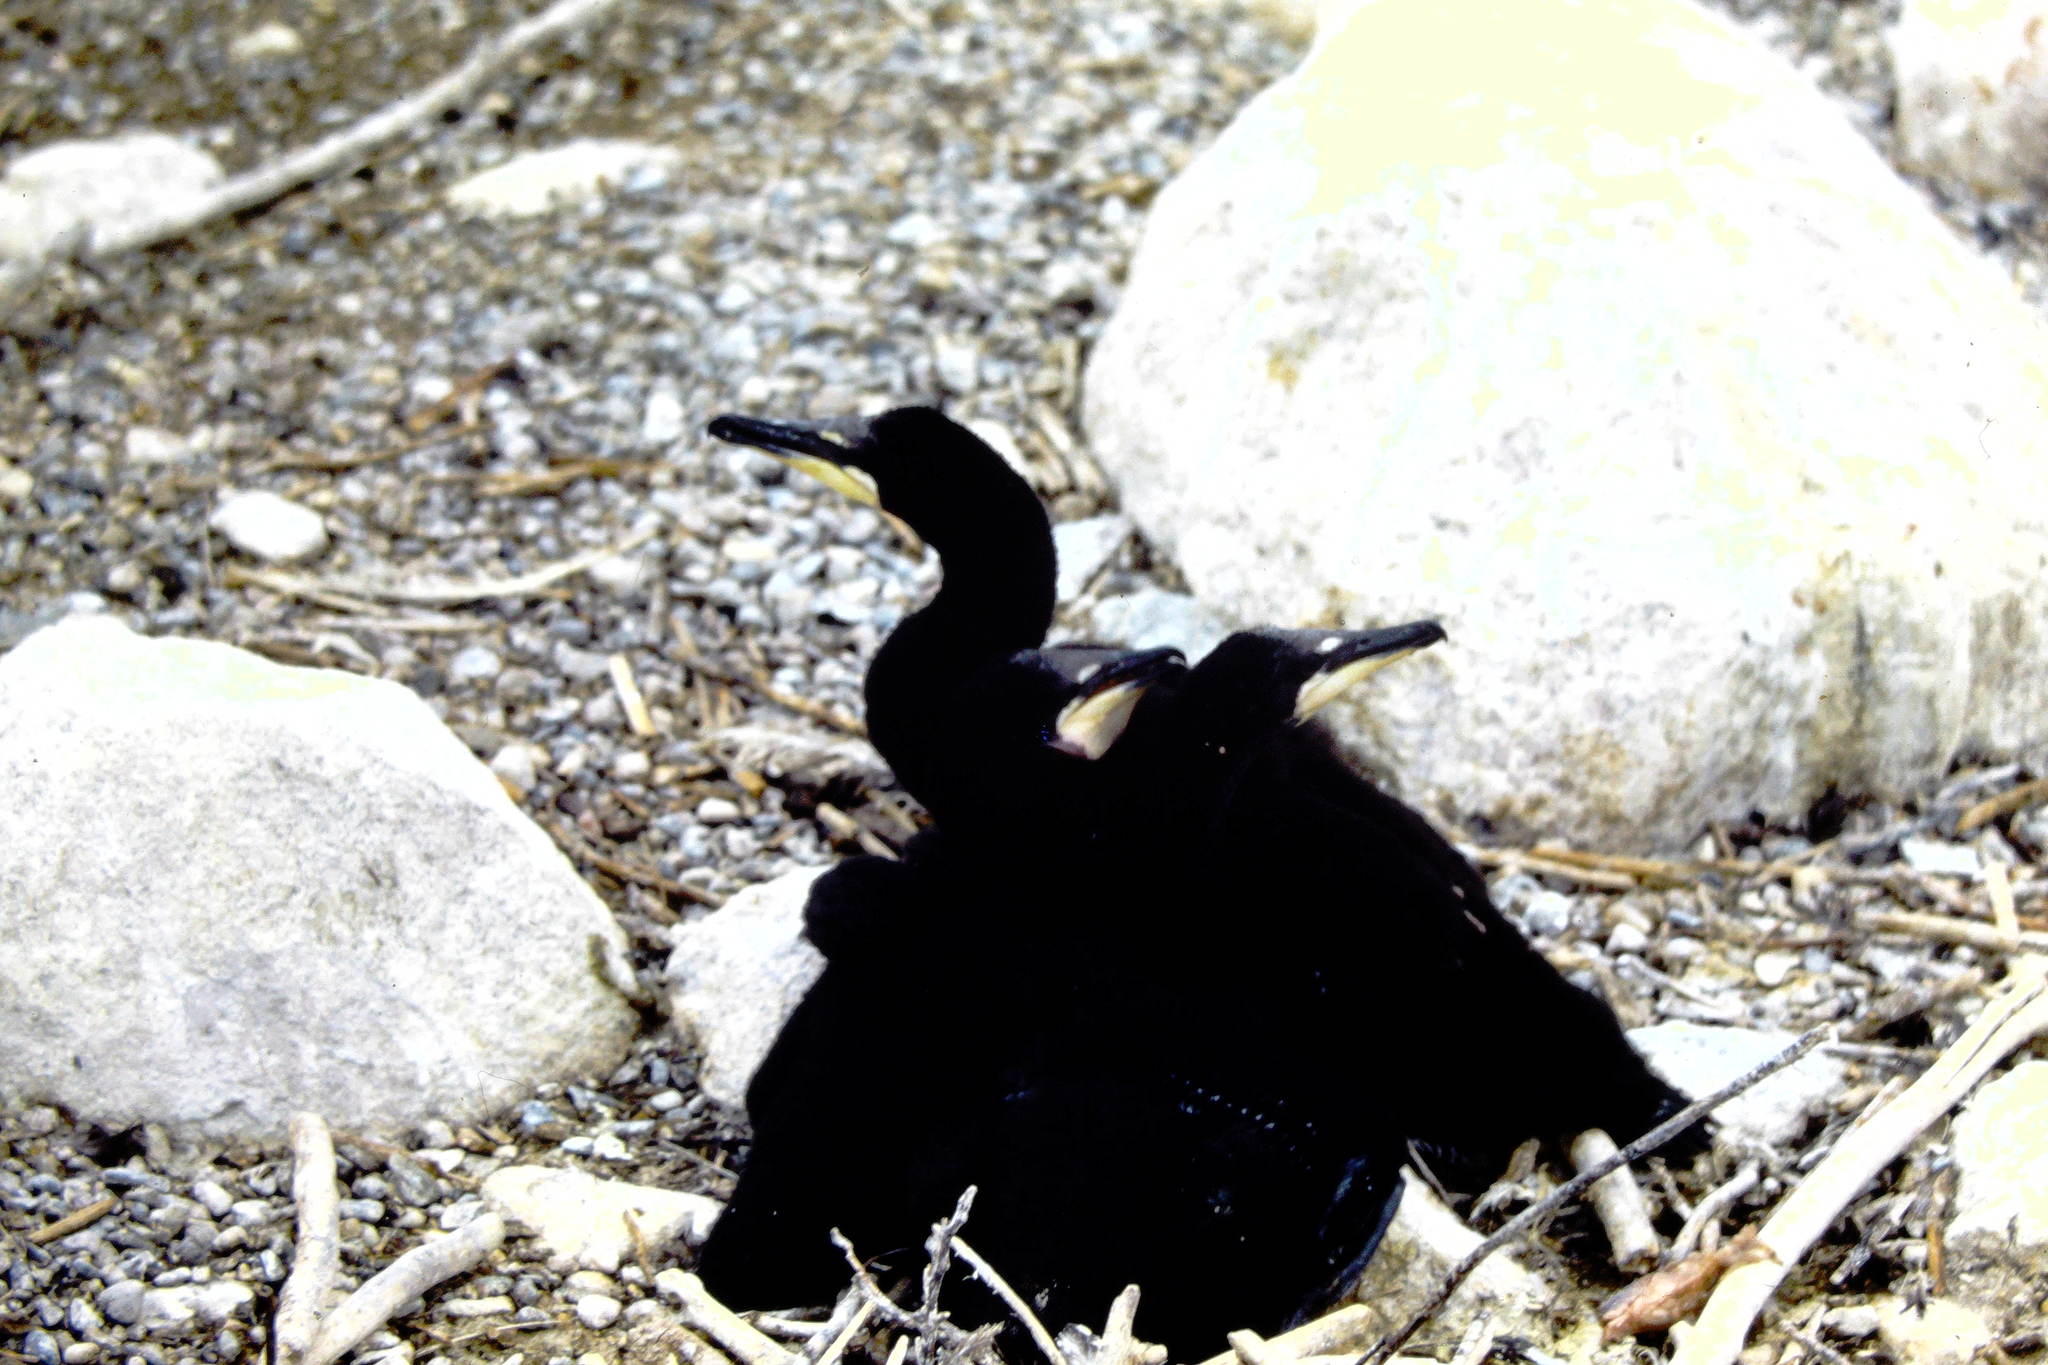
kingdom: Animalia
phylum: Chordata
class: Aves
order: Suliformes
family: Phalacrocoracidae
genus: Phalacrocorax
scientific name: Phalacrocorax auritus
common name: Double-crested cormorant
